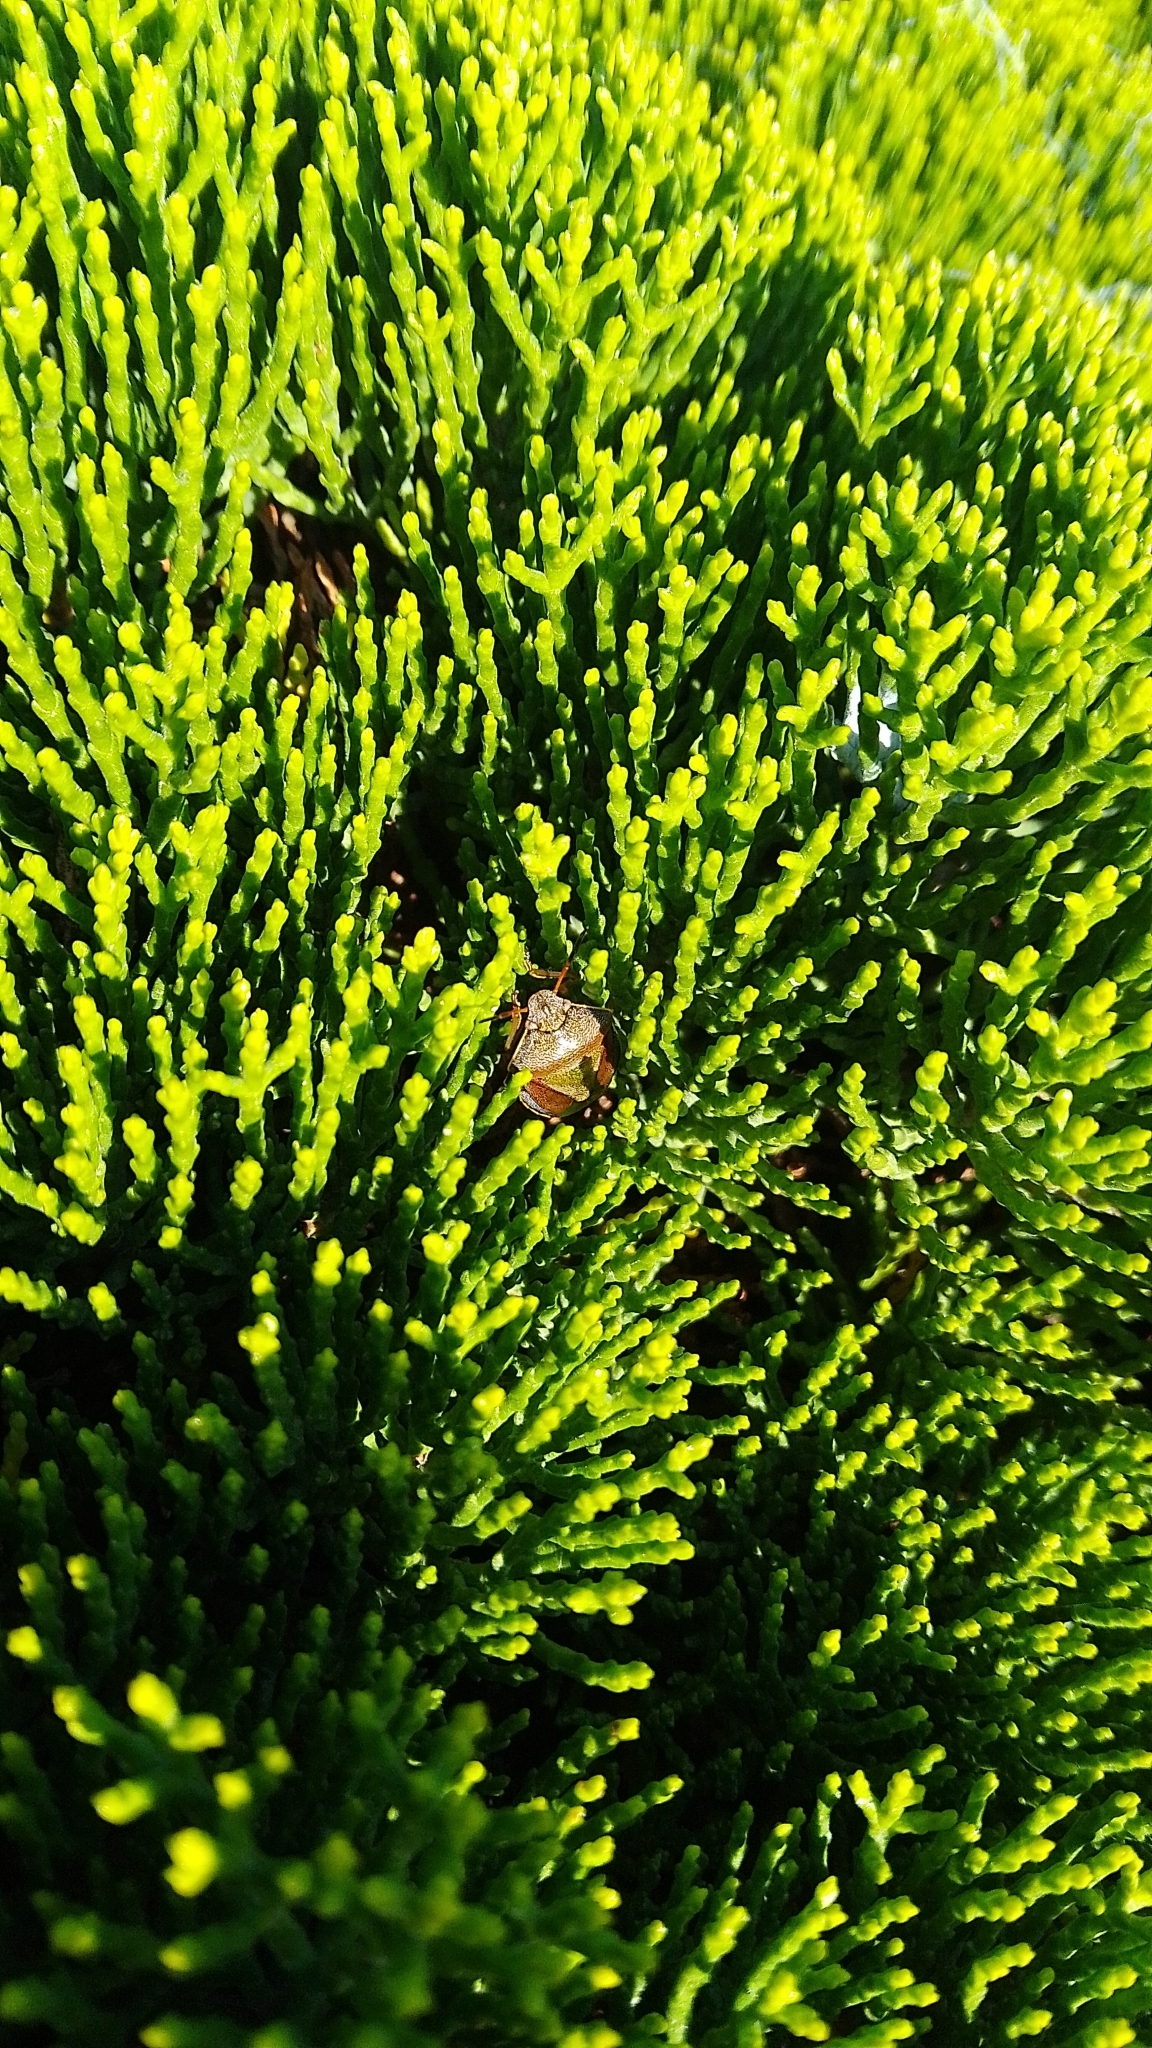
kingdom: Animalia
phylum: Arthropoda
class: Insecta
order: Hemiptera
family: Pentatomidae
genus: Piezodorus
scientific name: Piezodorus lituratus
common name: Stink bug
